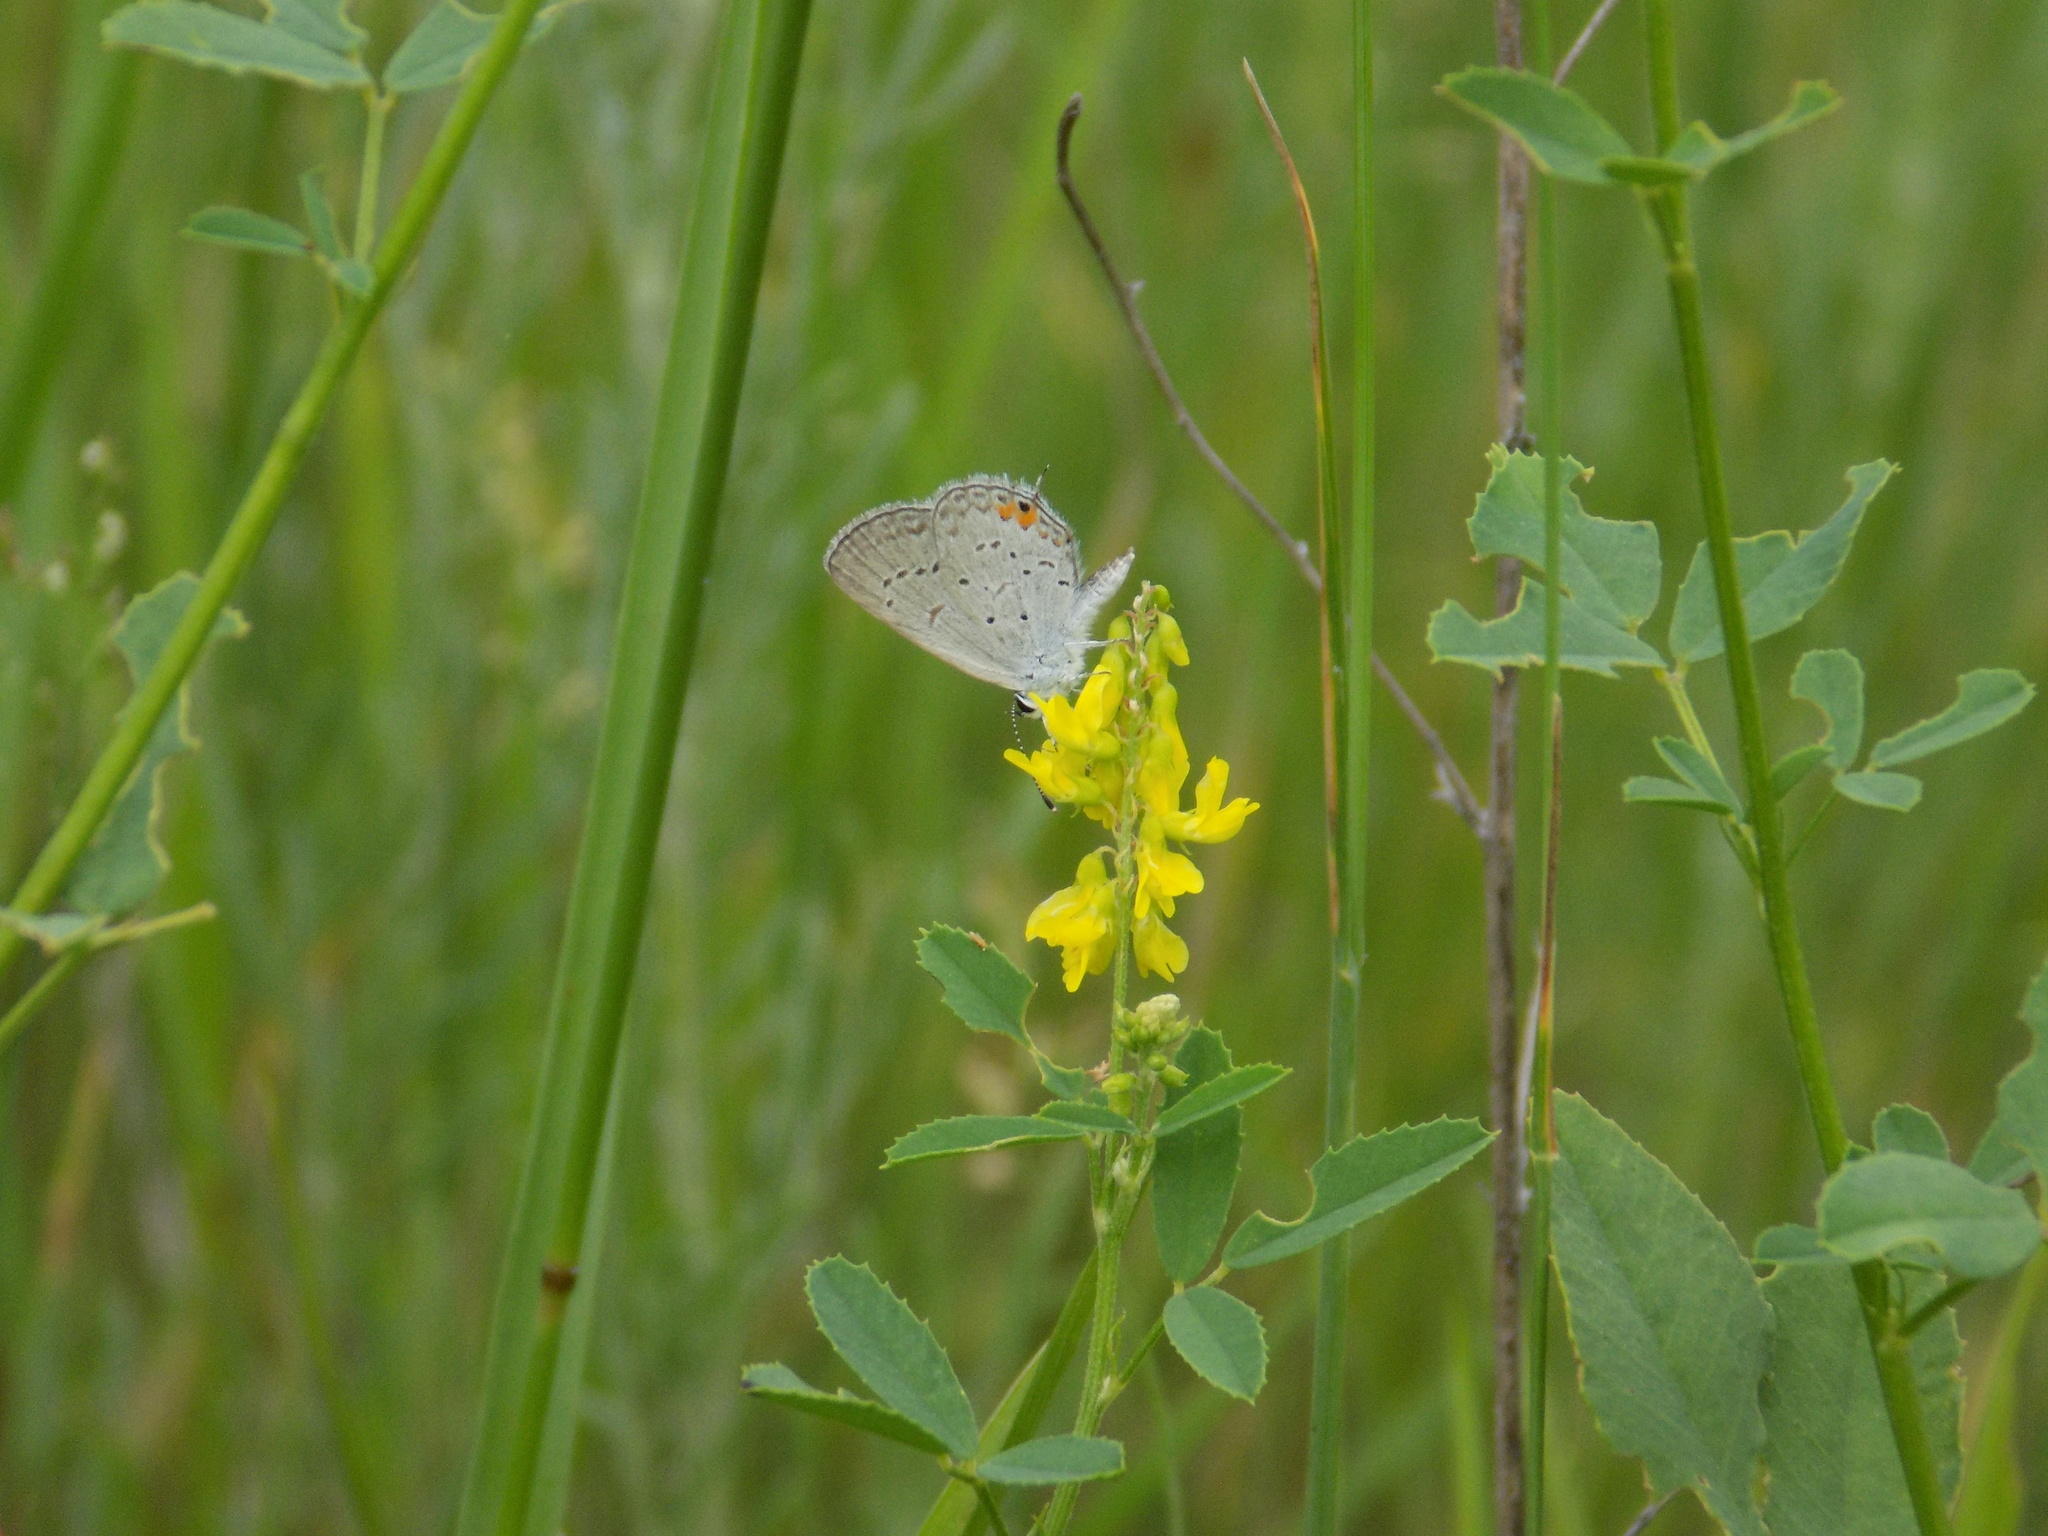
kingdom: Animalia
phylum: Arthropoda
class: Insecta
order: Lepidoptera
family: Lycaenidae
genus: Elkalyce
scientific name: Elkalyce comyntas
